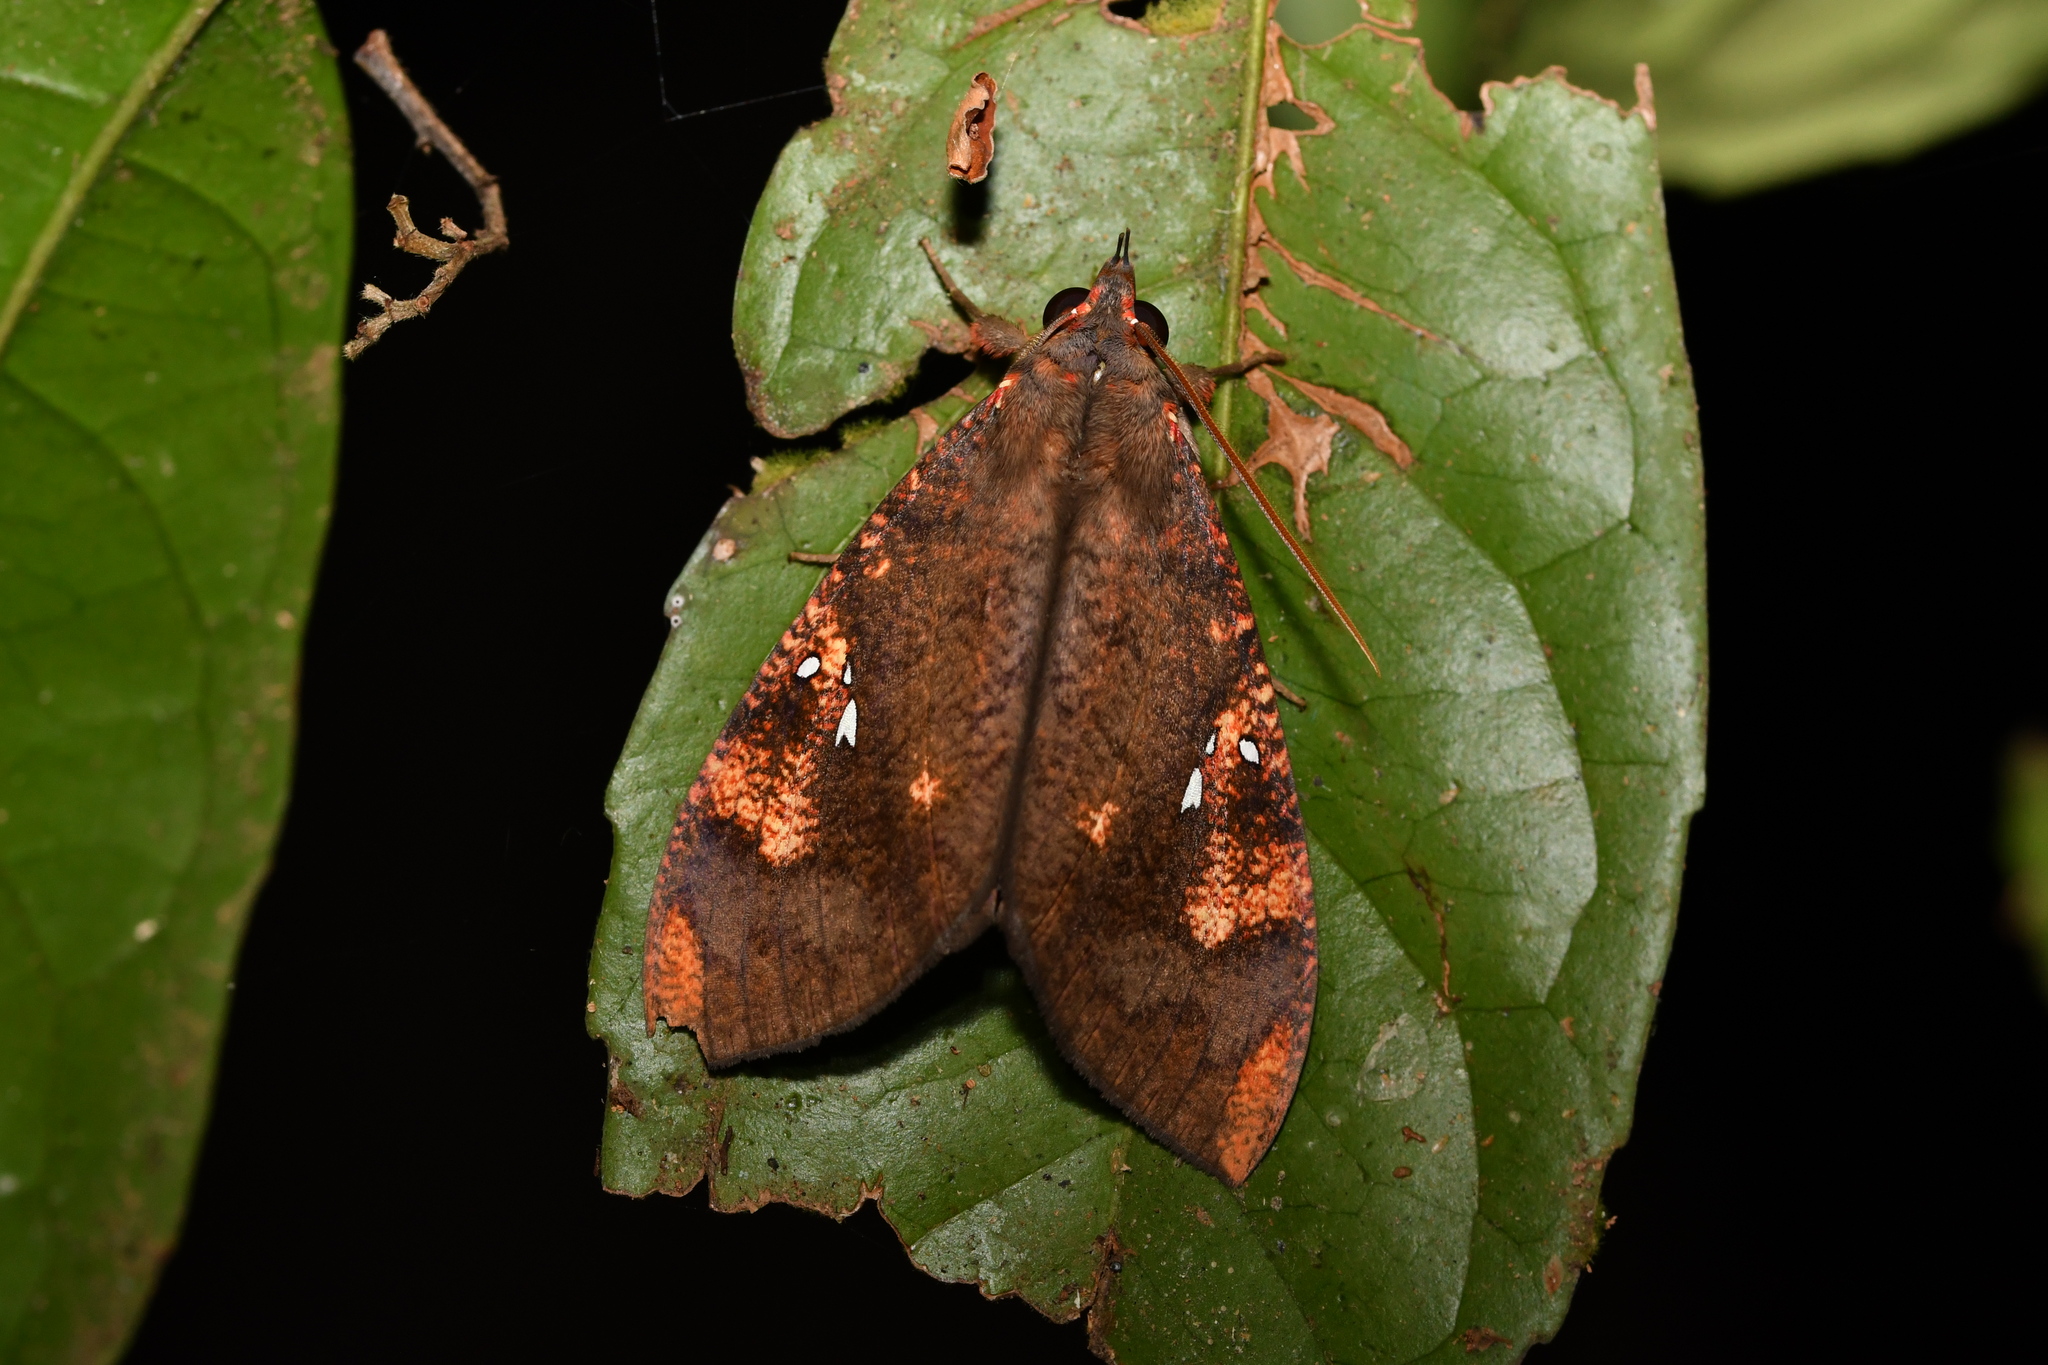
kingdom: Animalia
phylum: Arthropoda
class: Insecta
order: Lepidoptera
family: Erebidae
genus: Miniodes
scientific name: Miniodes discolor
